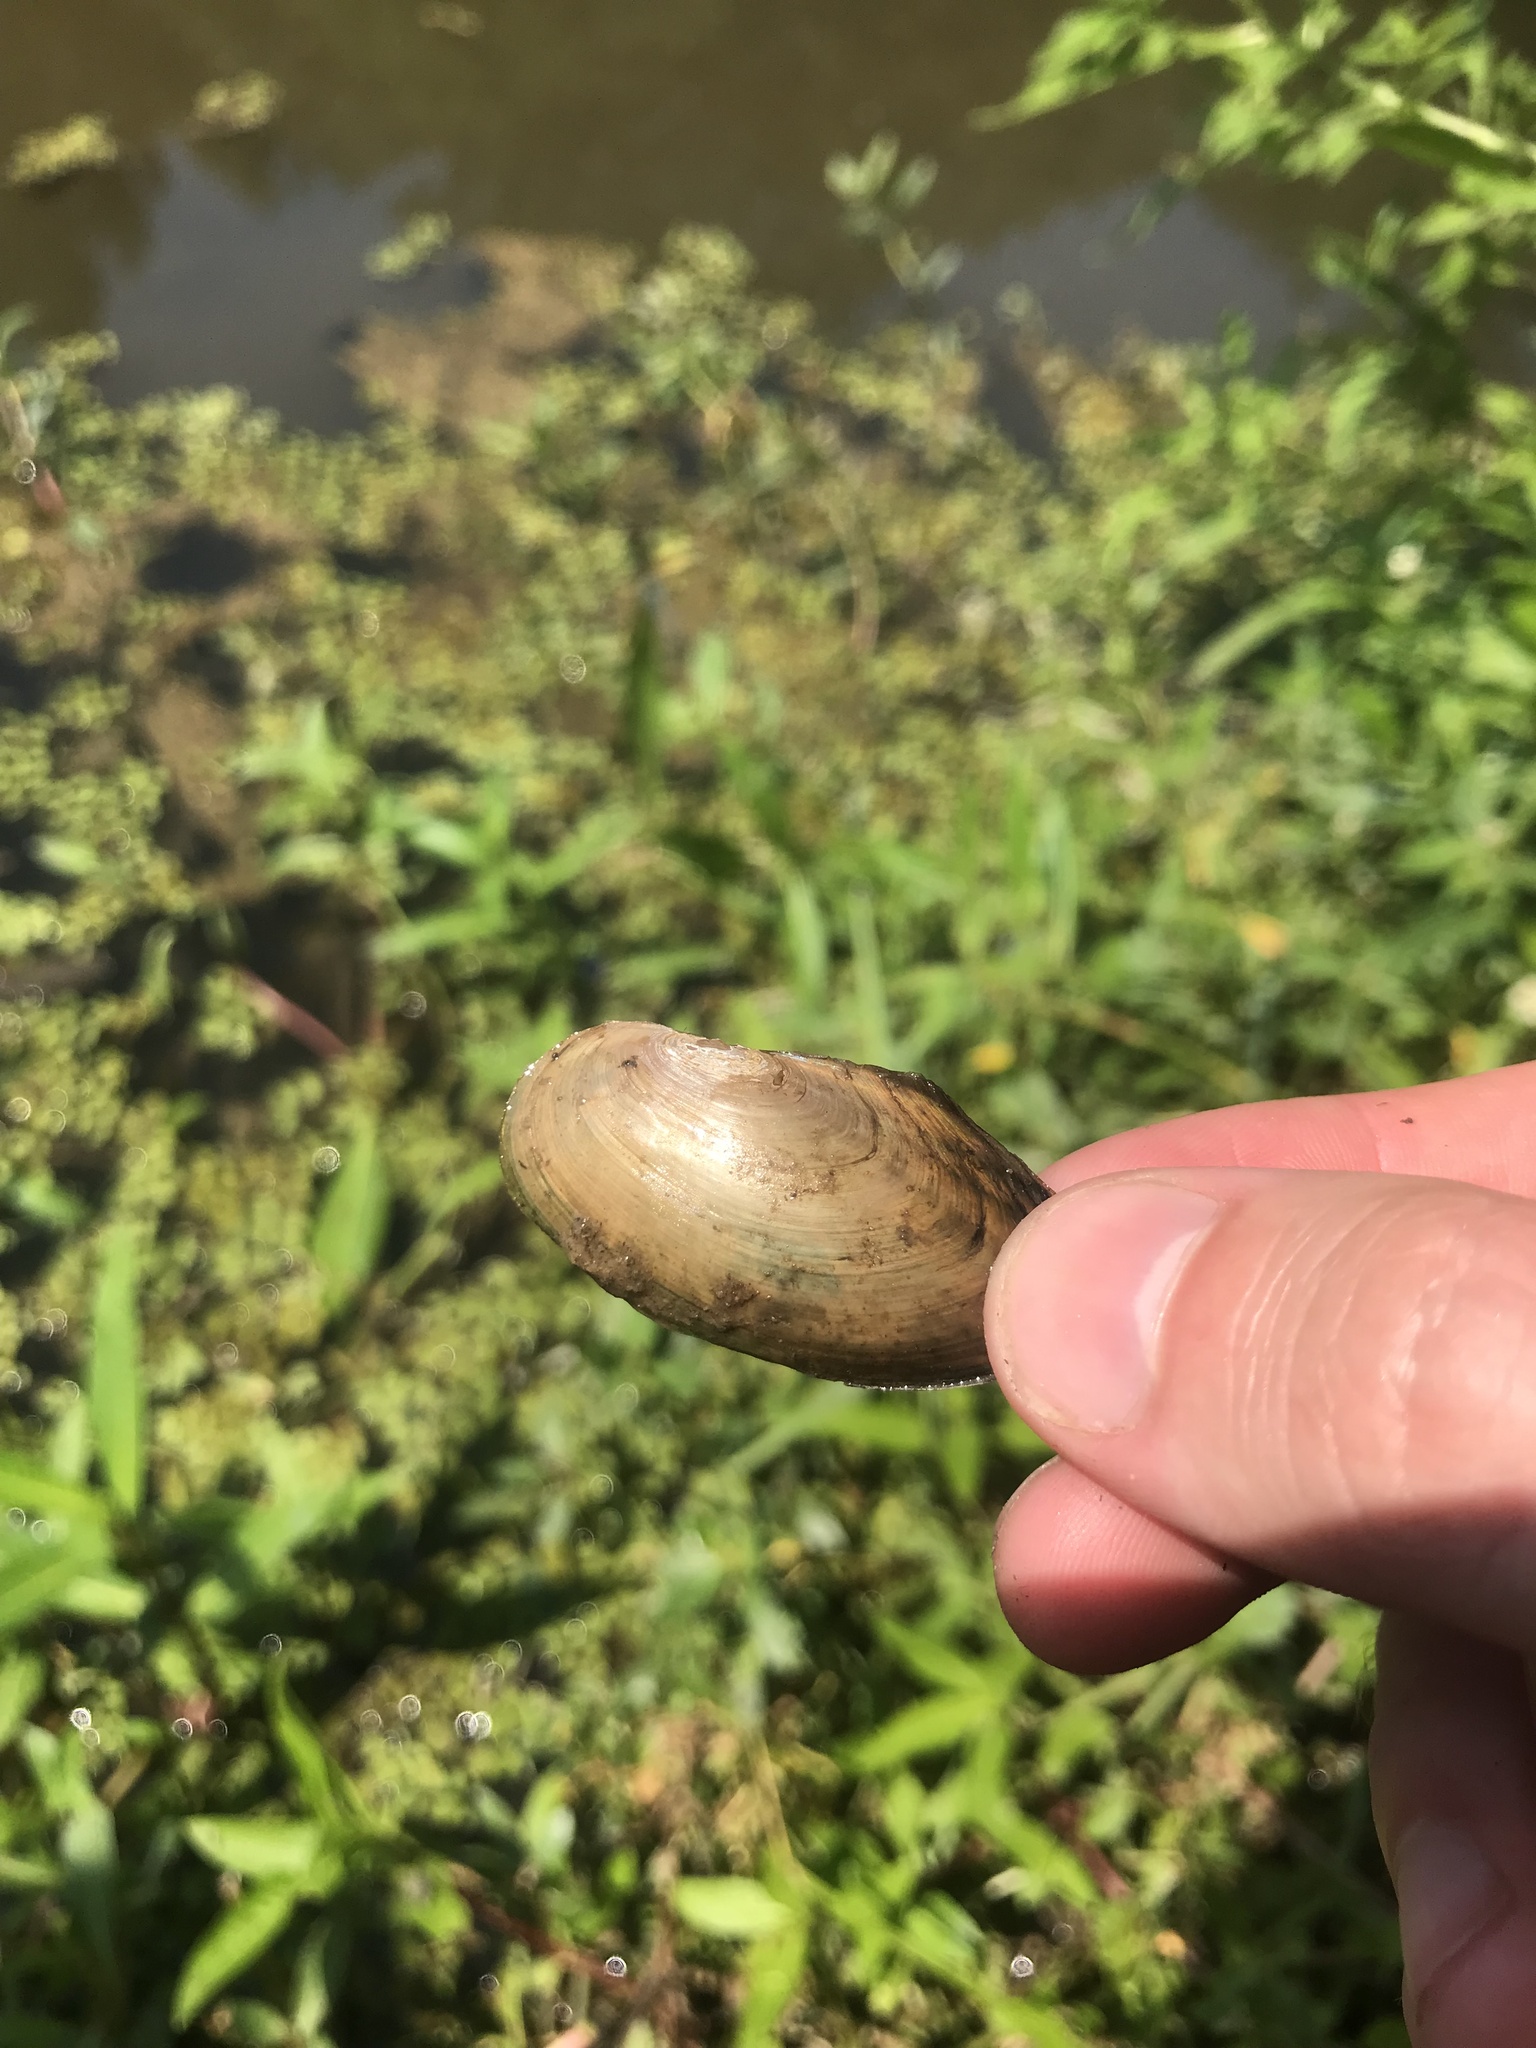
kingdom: Animalia
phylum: Mollusca
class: Bivalvia
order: Unionida
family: Unionidae
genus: Utterbackia
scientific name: Utterbackia imbecillis
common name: Paper pondshell
